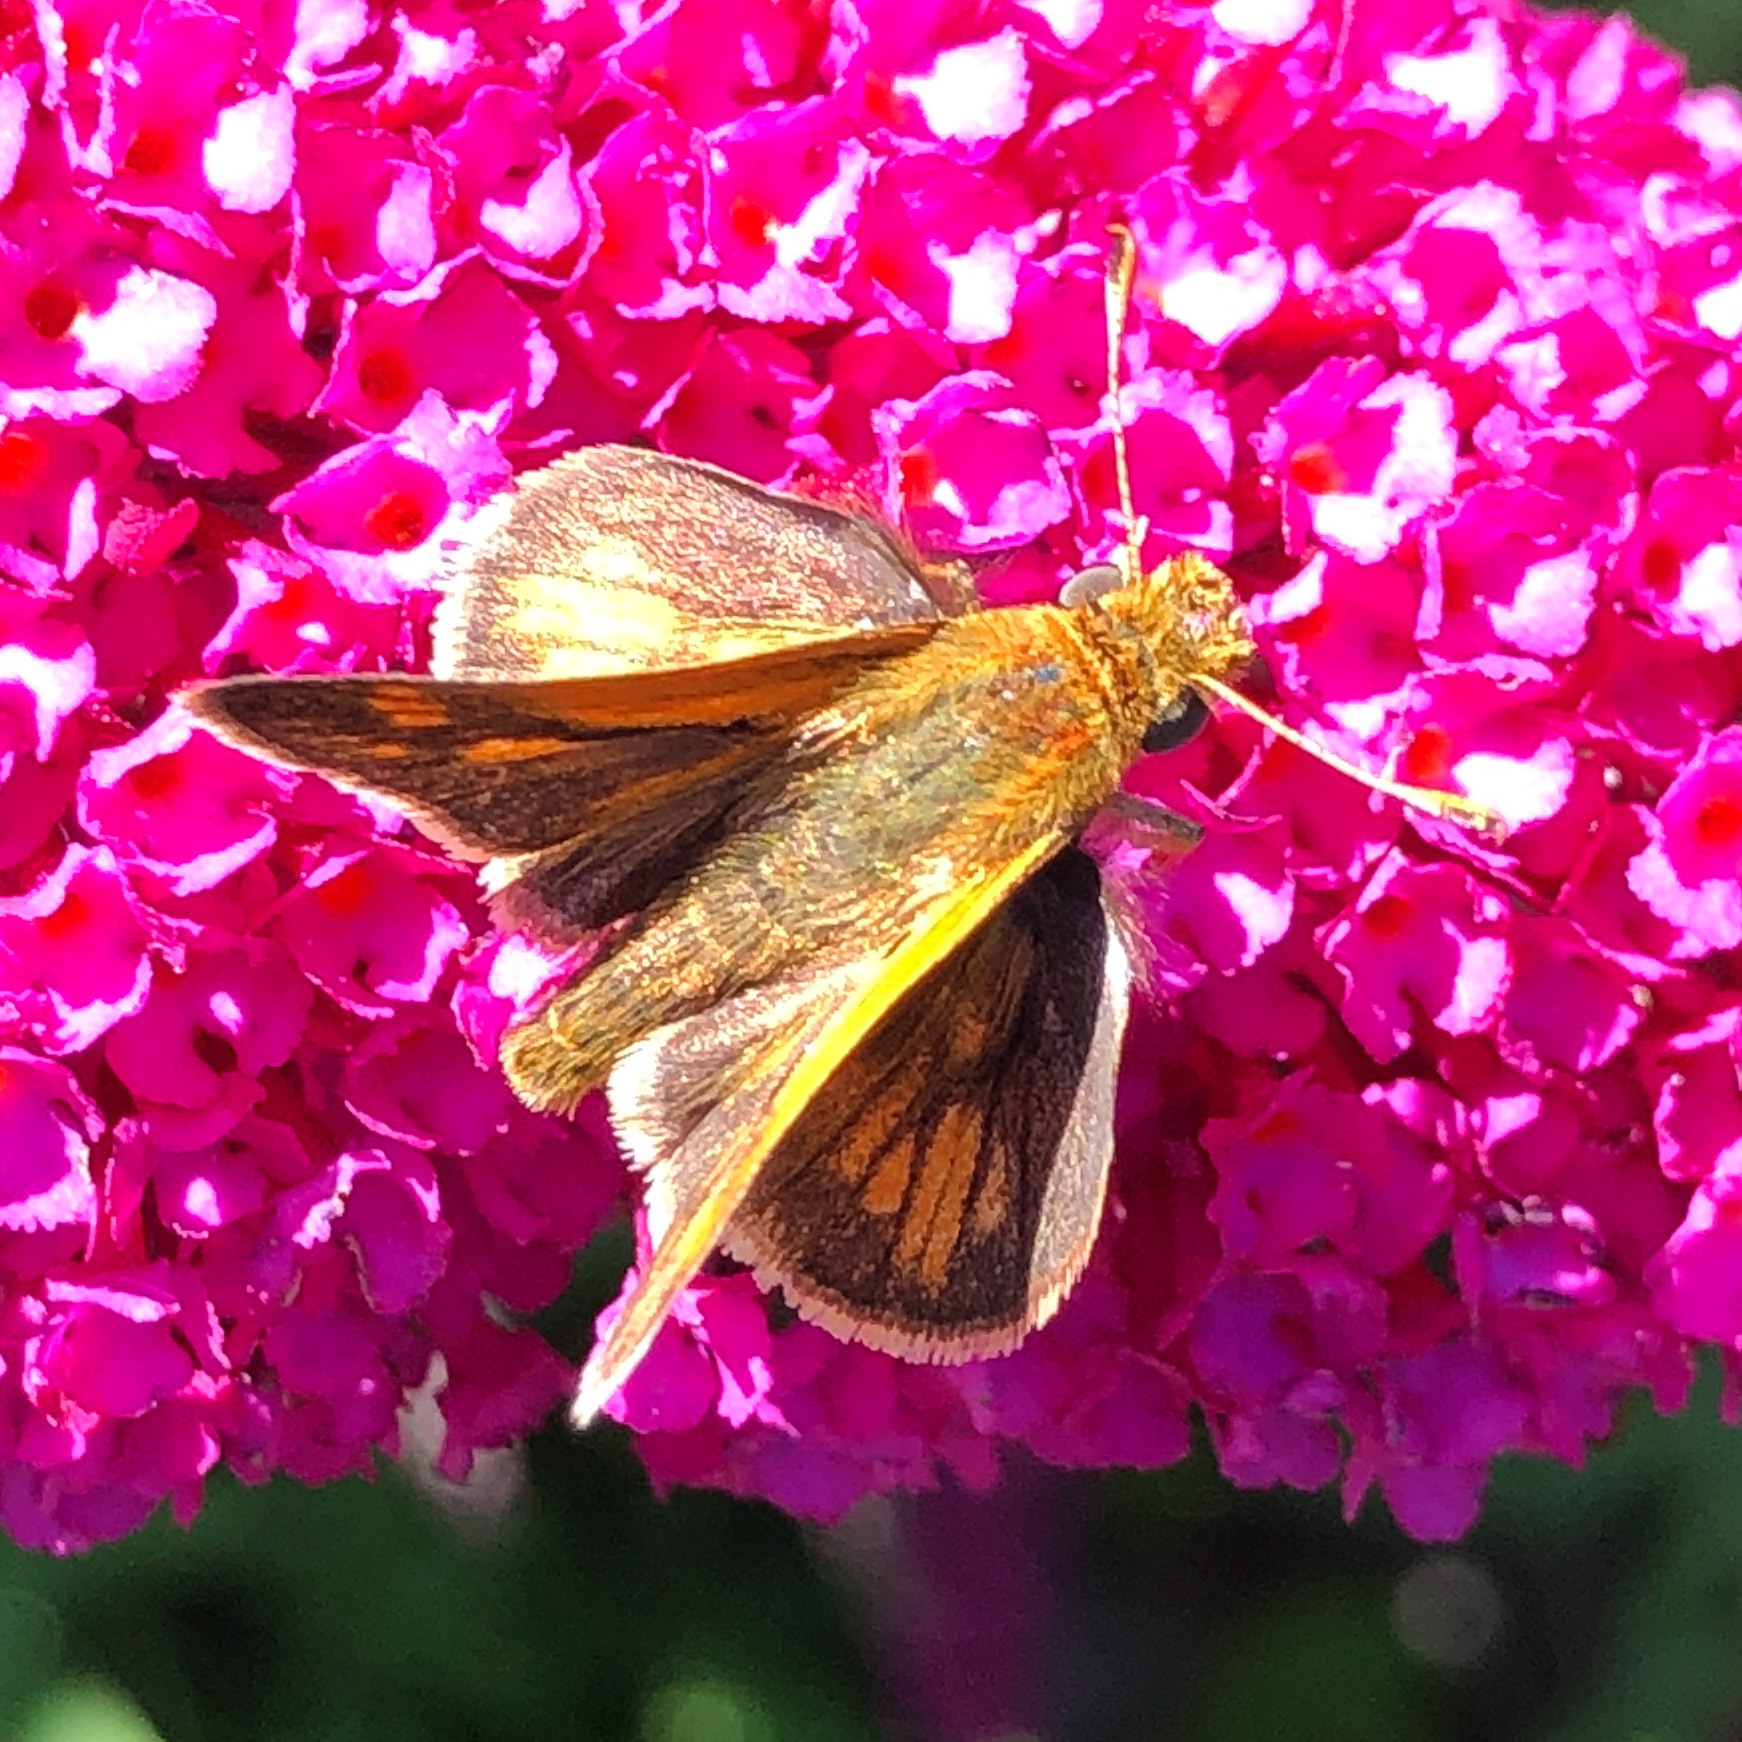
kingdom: Animalia
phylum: Arthropoda
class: Insecta
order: Lepidoptera
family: Hesperiidae
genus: Polites
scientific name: Polites coras
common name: Peck's skipper
